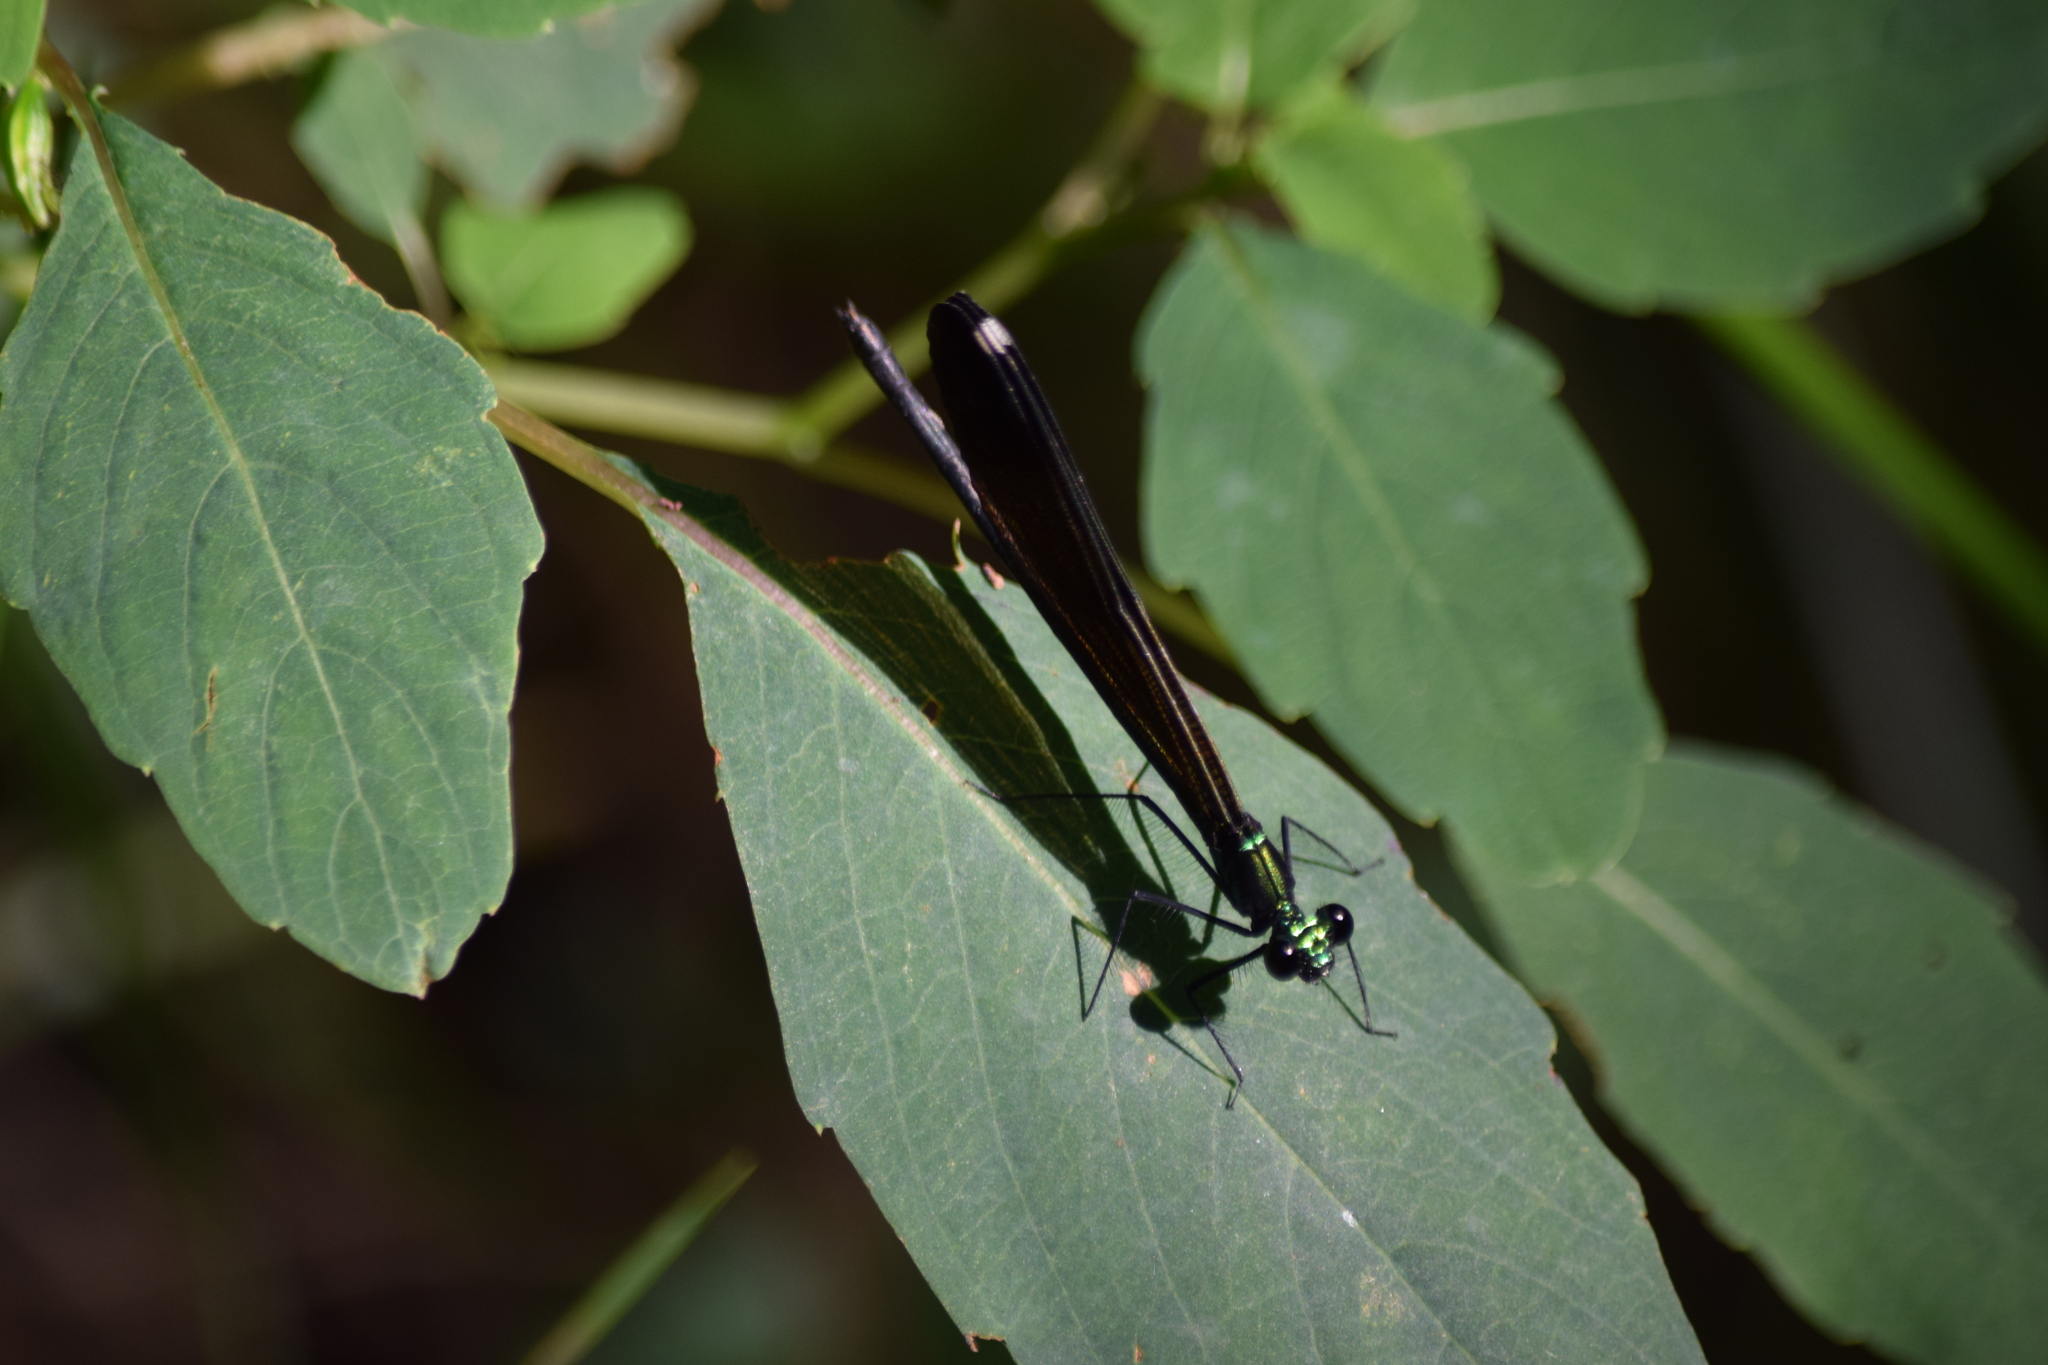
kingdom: Animalia
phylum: Arthropoda
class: Insecta
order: Odonata
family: Calopterygidae
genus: Calopteryx
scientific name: Calopteryx maculata
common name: Ebony jewelwing
